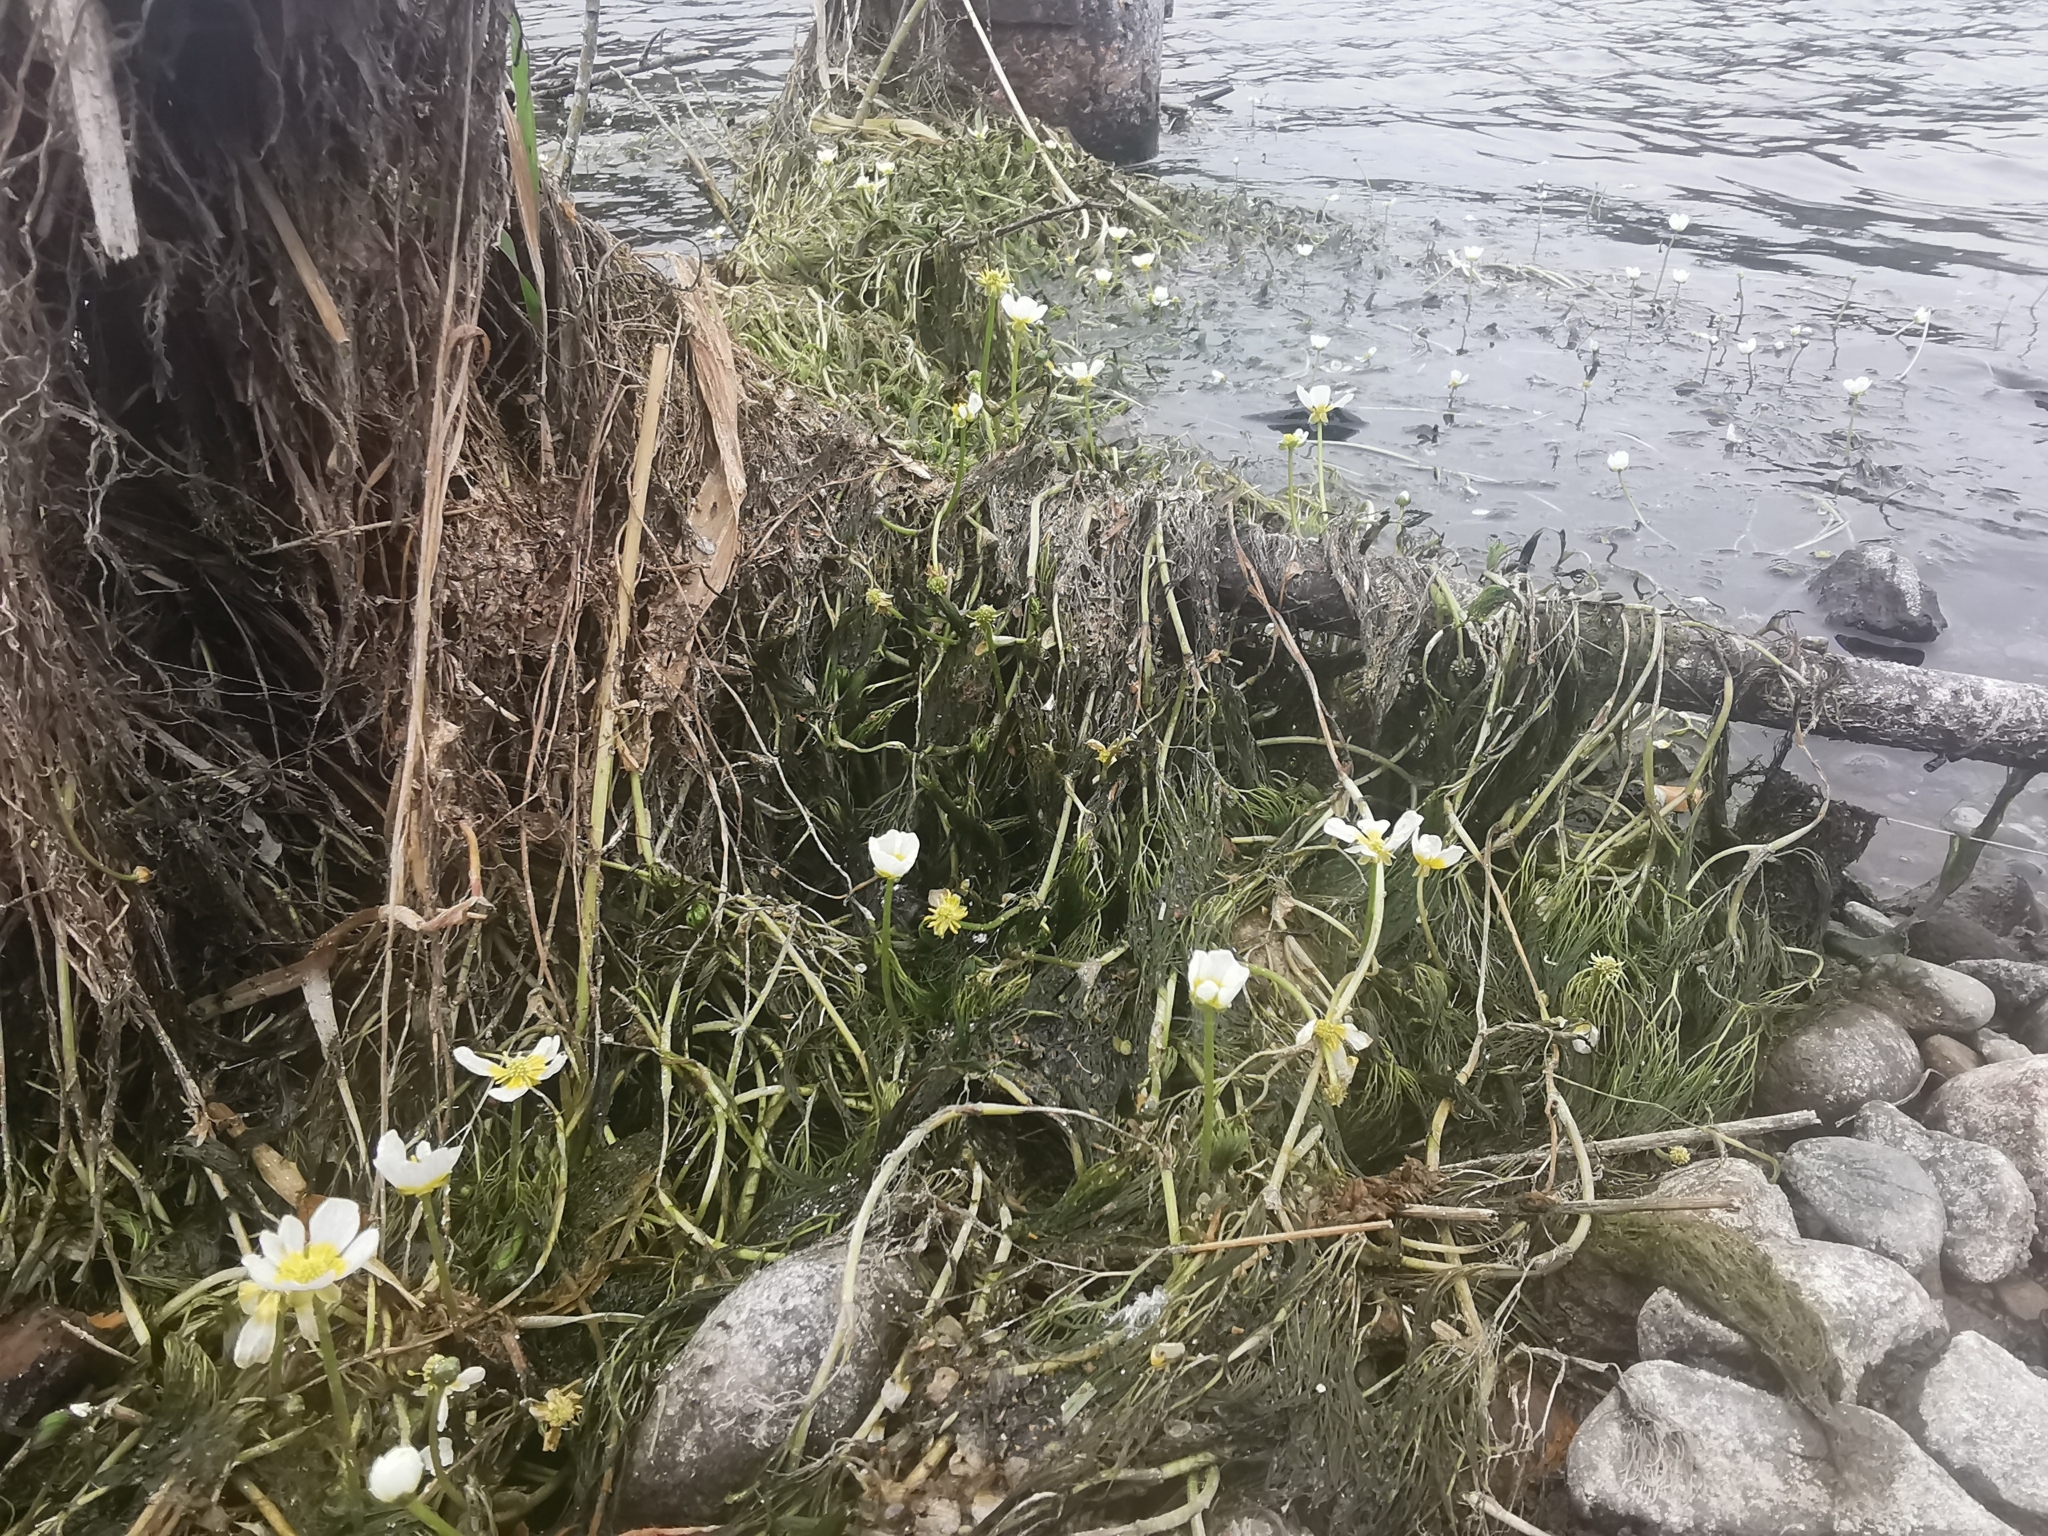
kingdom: Plantae
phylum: Tracheophyta
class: Magnoliopsida
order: Ranunculales
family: Ranunculaceae
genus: Ranunculus
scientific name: Ranunculus trichophyllus
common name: Thread-leaved water-crowfoot
